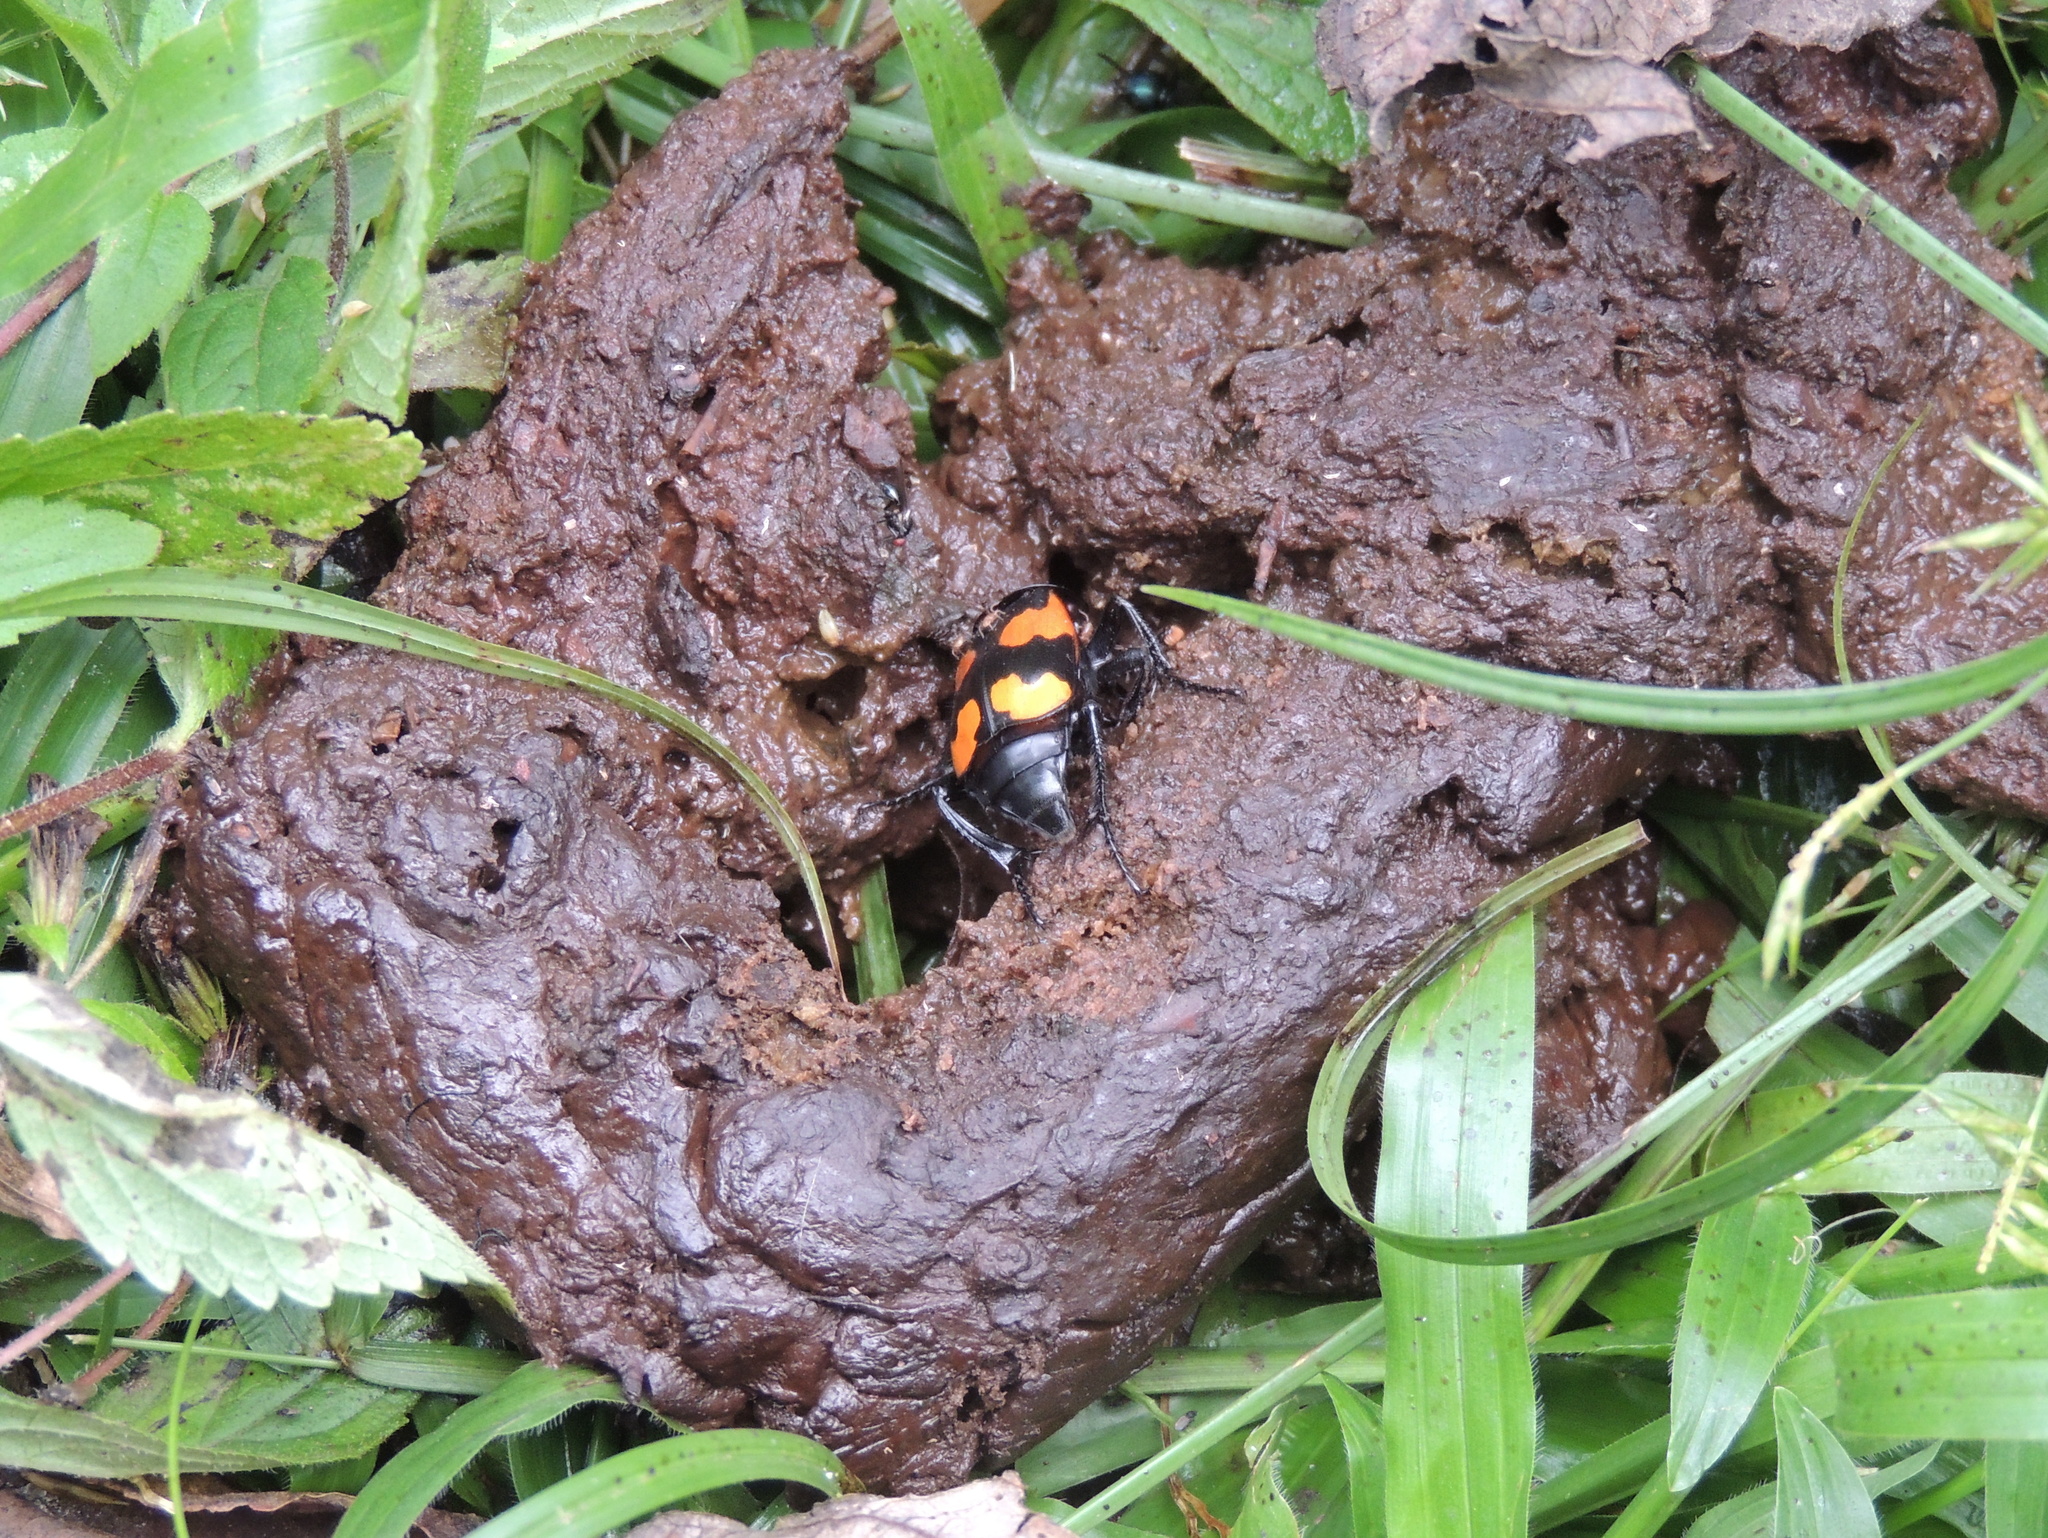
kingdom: Animalia
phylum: Arthropoda
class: Insecta
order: Coleoptera
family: Staphylinidae
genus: Nicrophorus
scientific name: Nicrophorus scrutator
